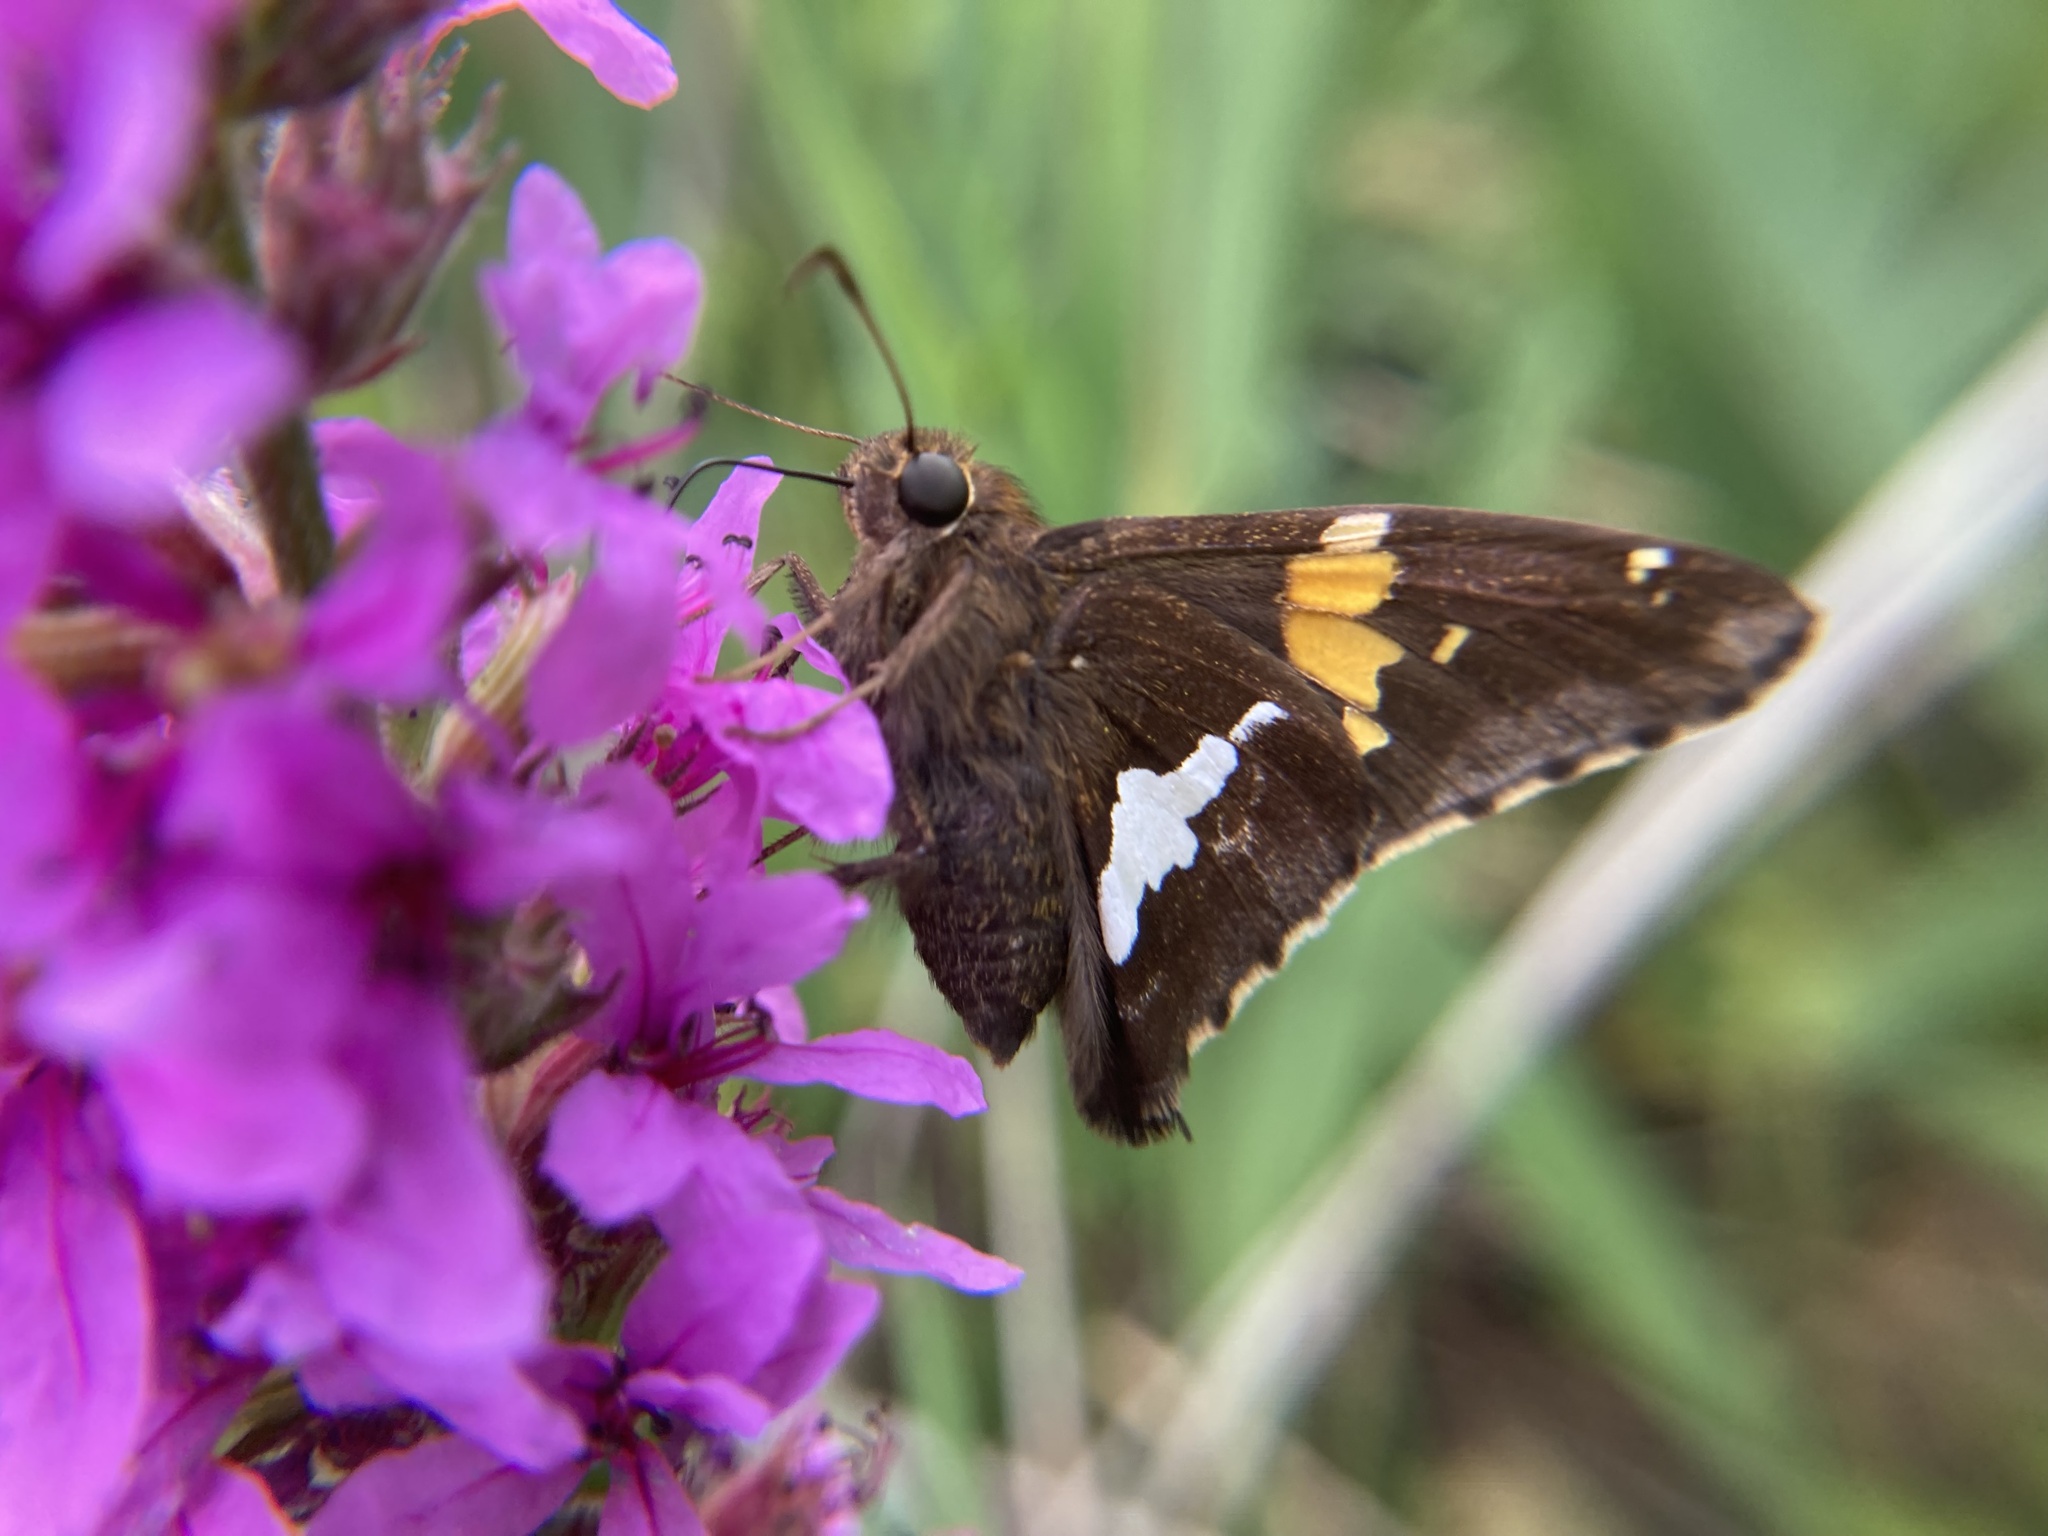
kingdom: Animalia
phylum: Arthropoda
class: Insecta
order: Lepidoptera
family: Hesperiidae
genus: Epargyreus
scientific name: Epargyreus clarus
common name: Silver-spotted skipper
